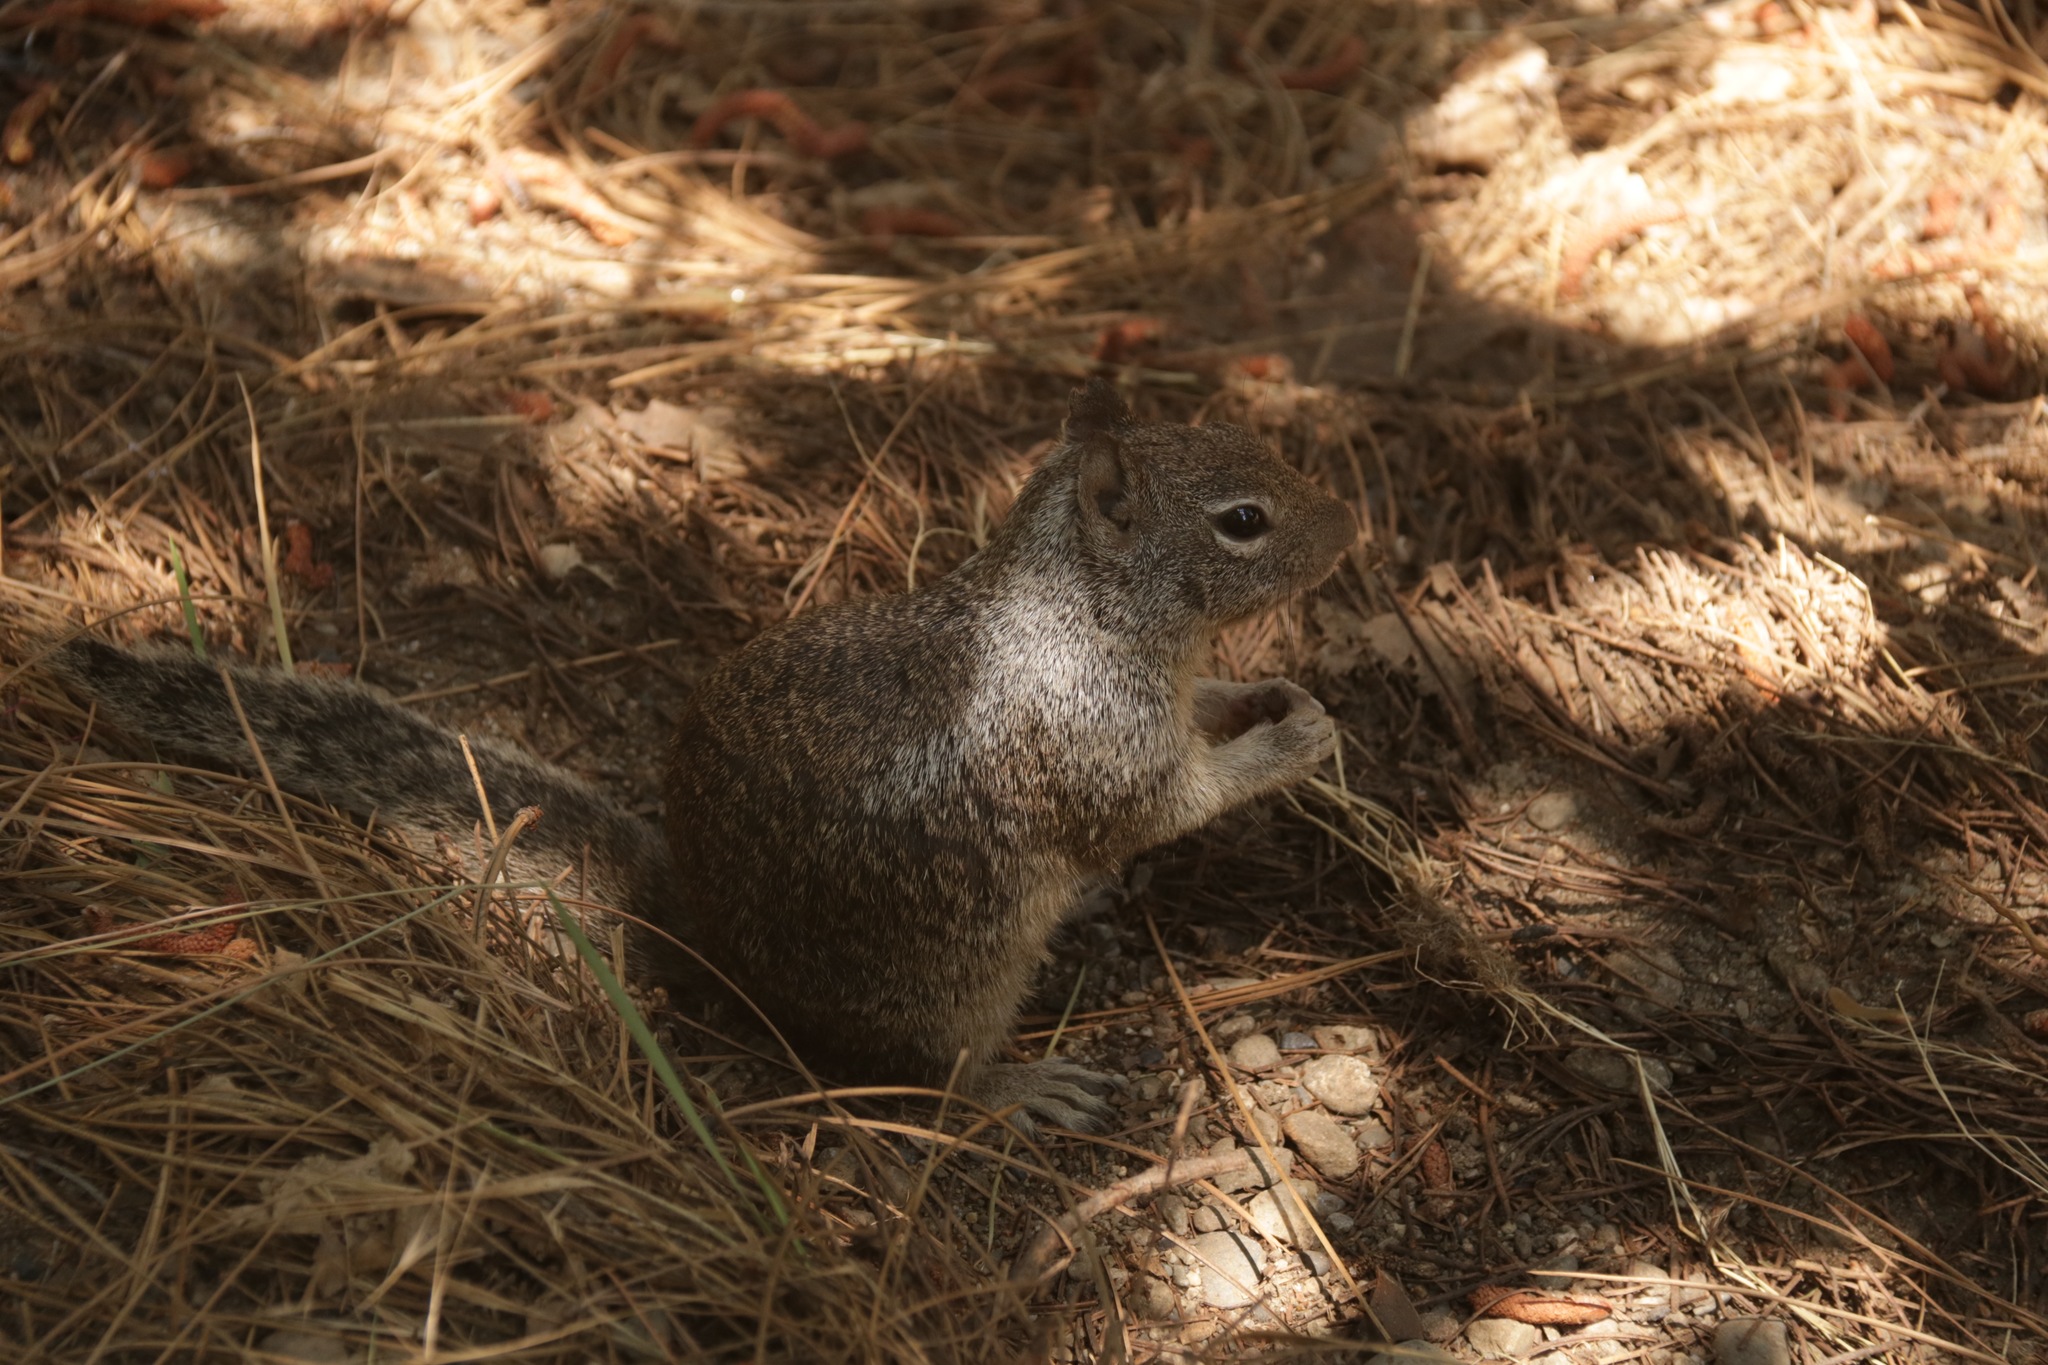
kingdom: Animalia
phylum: Chordata
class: Mammalia
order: Rodentia
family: Sciuridae
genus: Otospermophilus
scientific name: Otospermophilus beecheyi
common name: California ground squirrel
